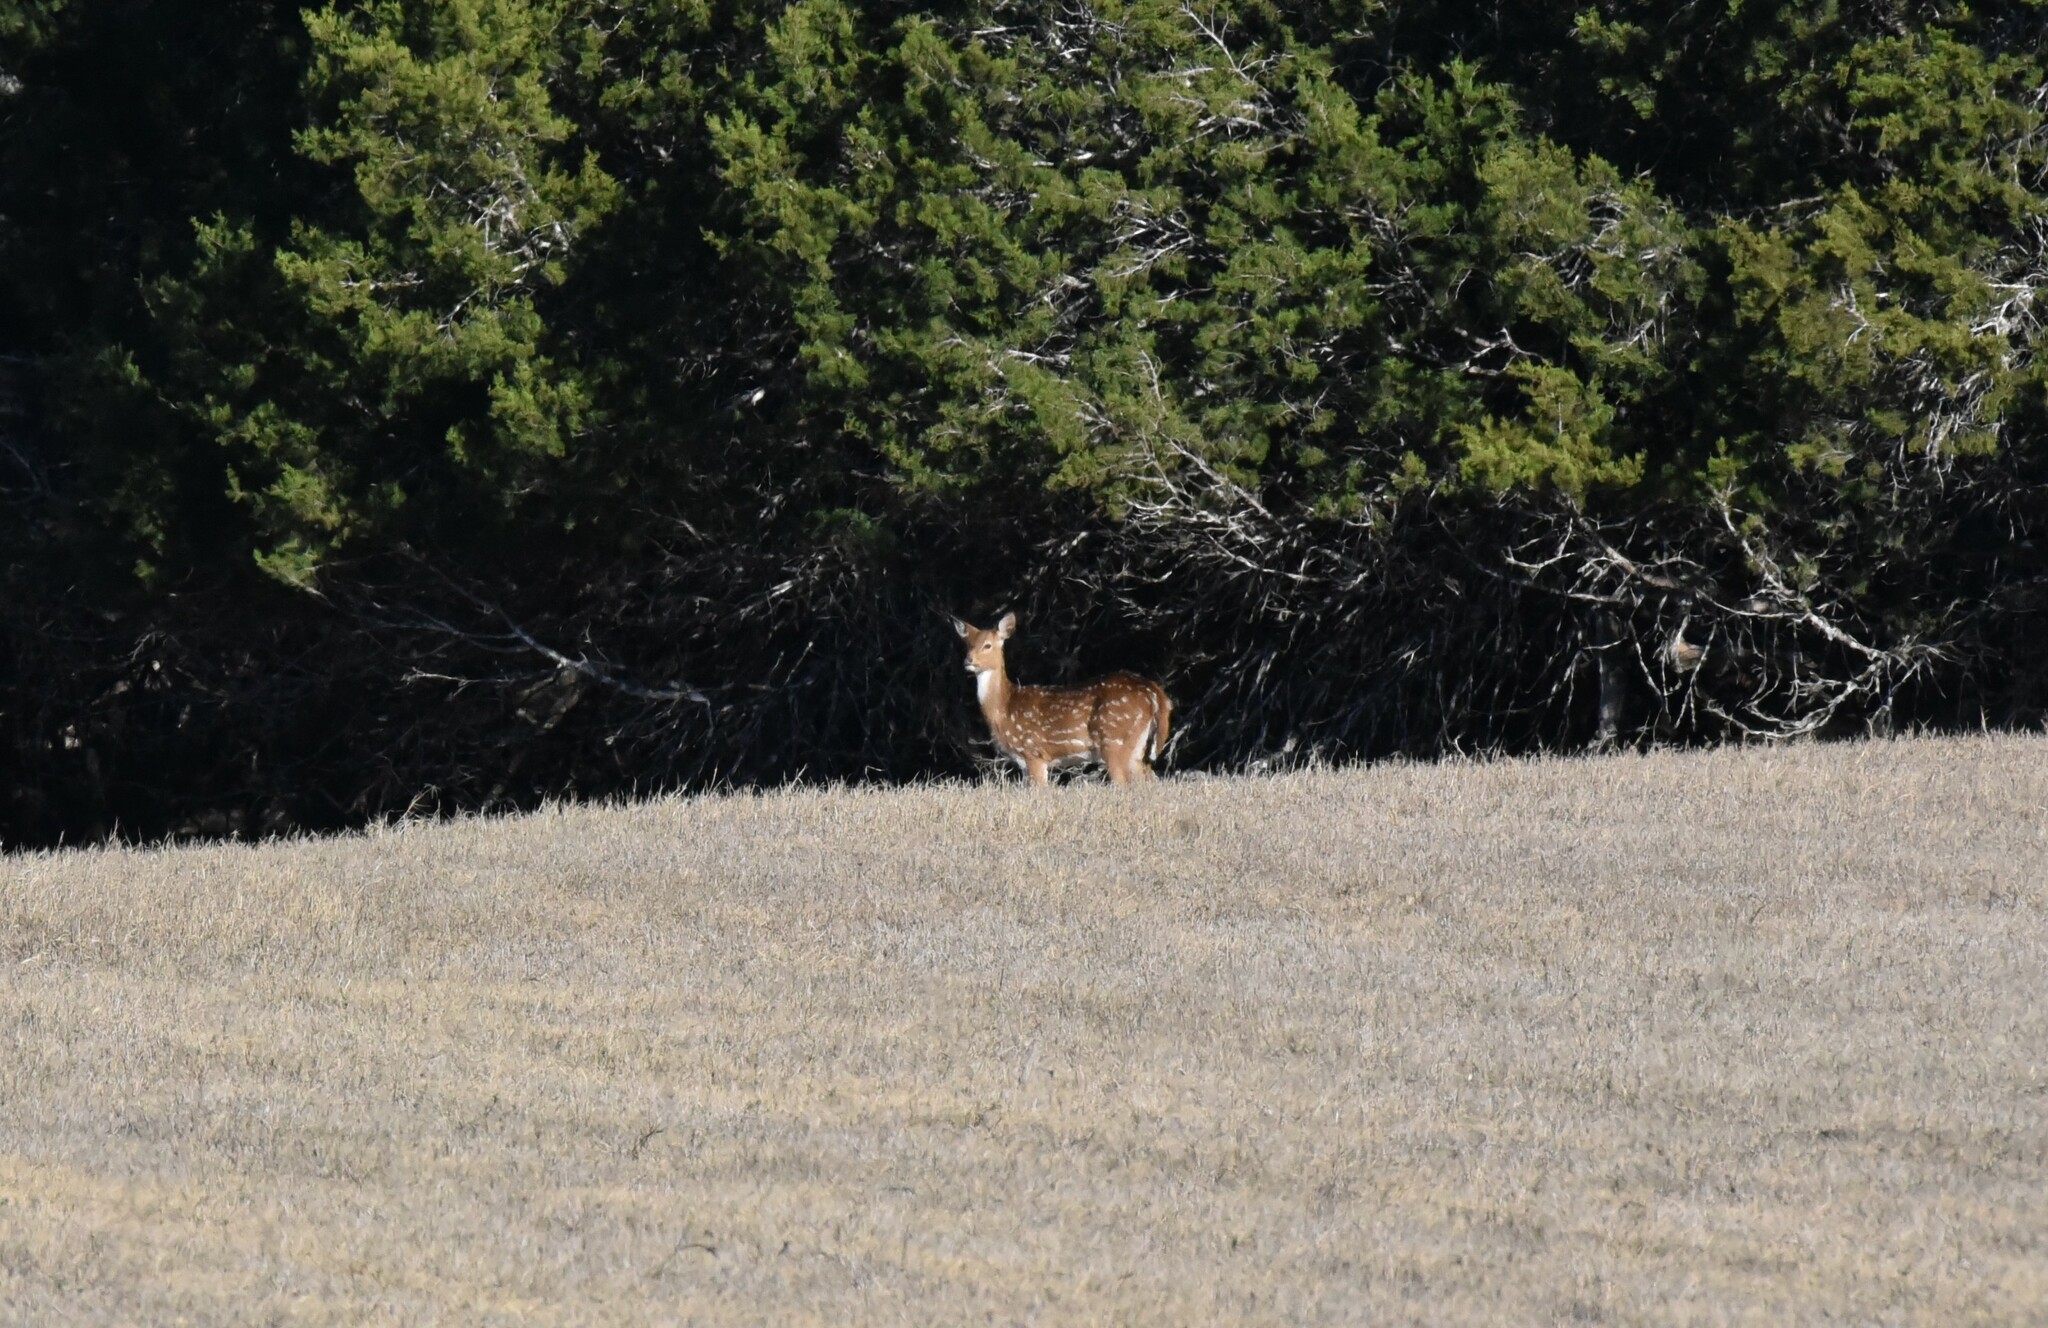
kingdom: Animalia
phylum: Chordata
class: Mammalia
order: Artiodactyla
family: Cervidae
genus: Axis
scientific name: Axis axis
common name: Chital
